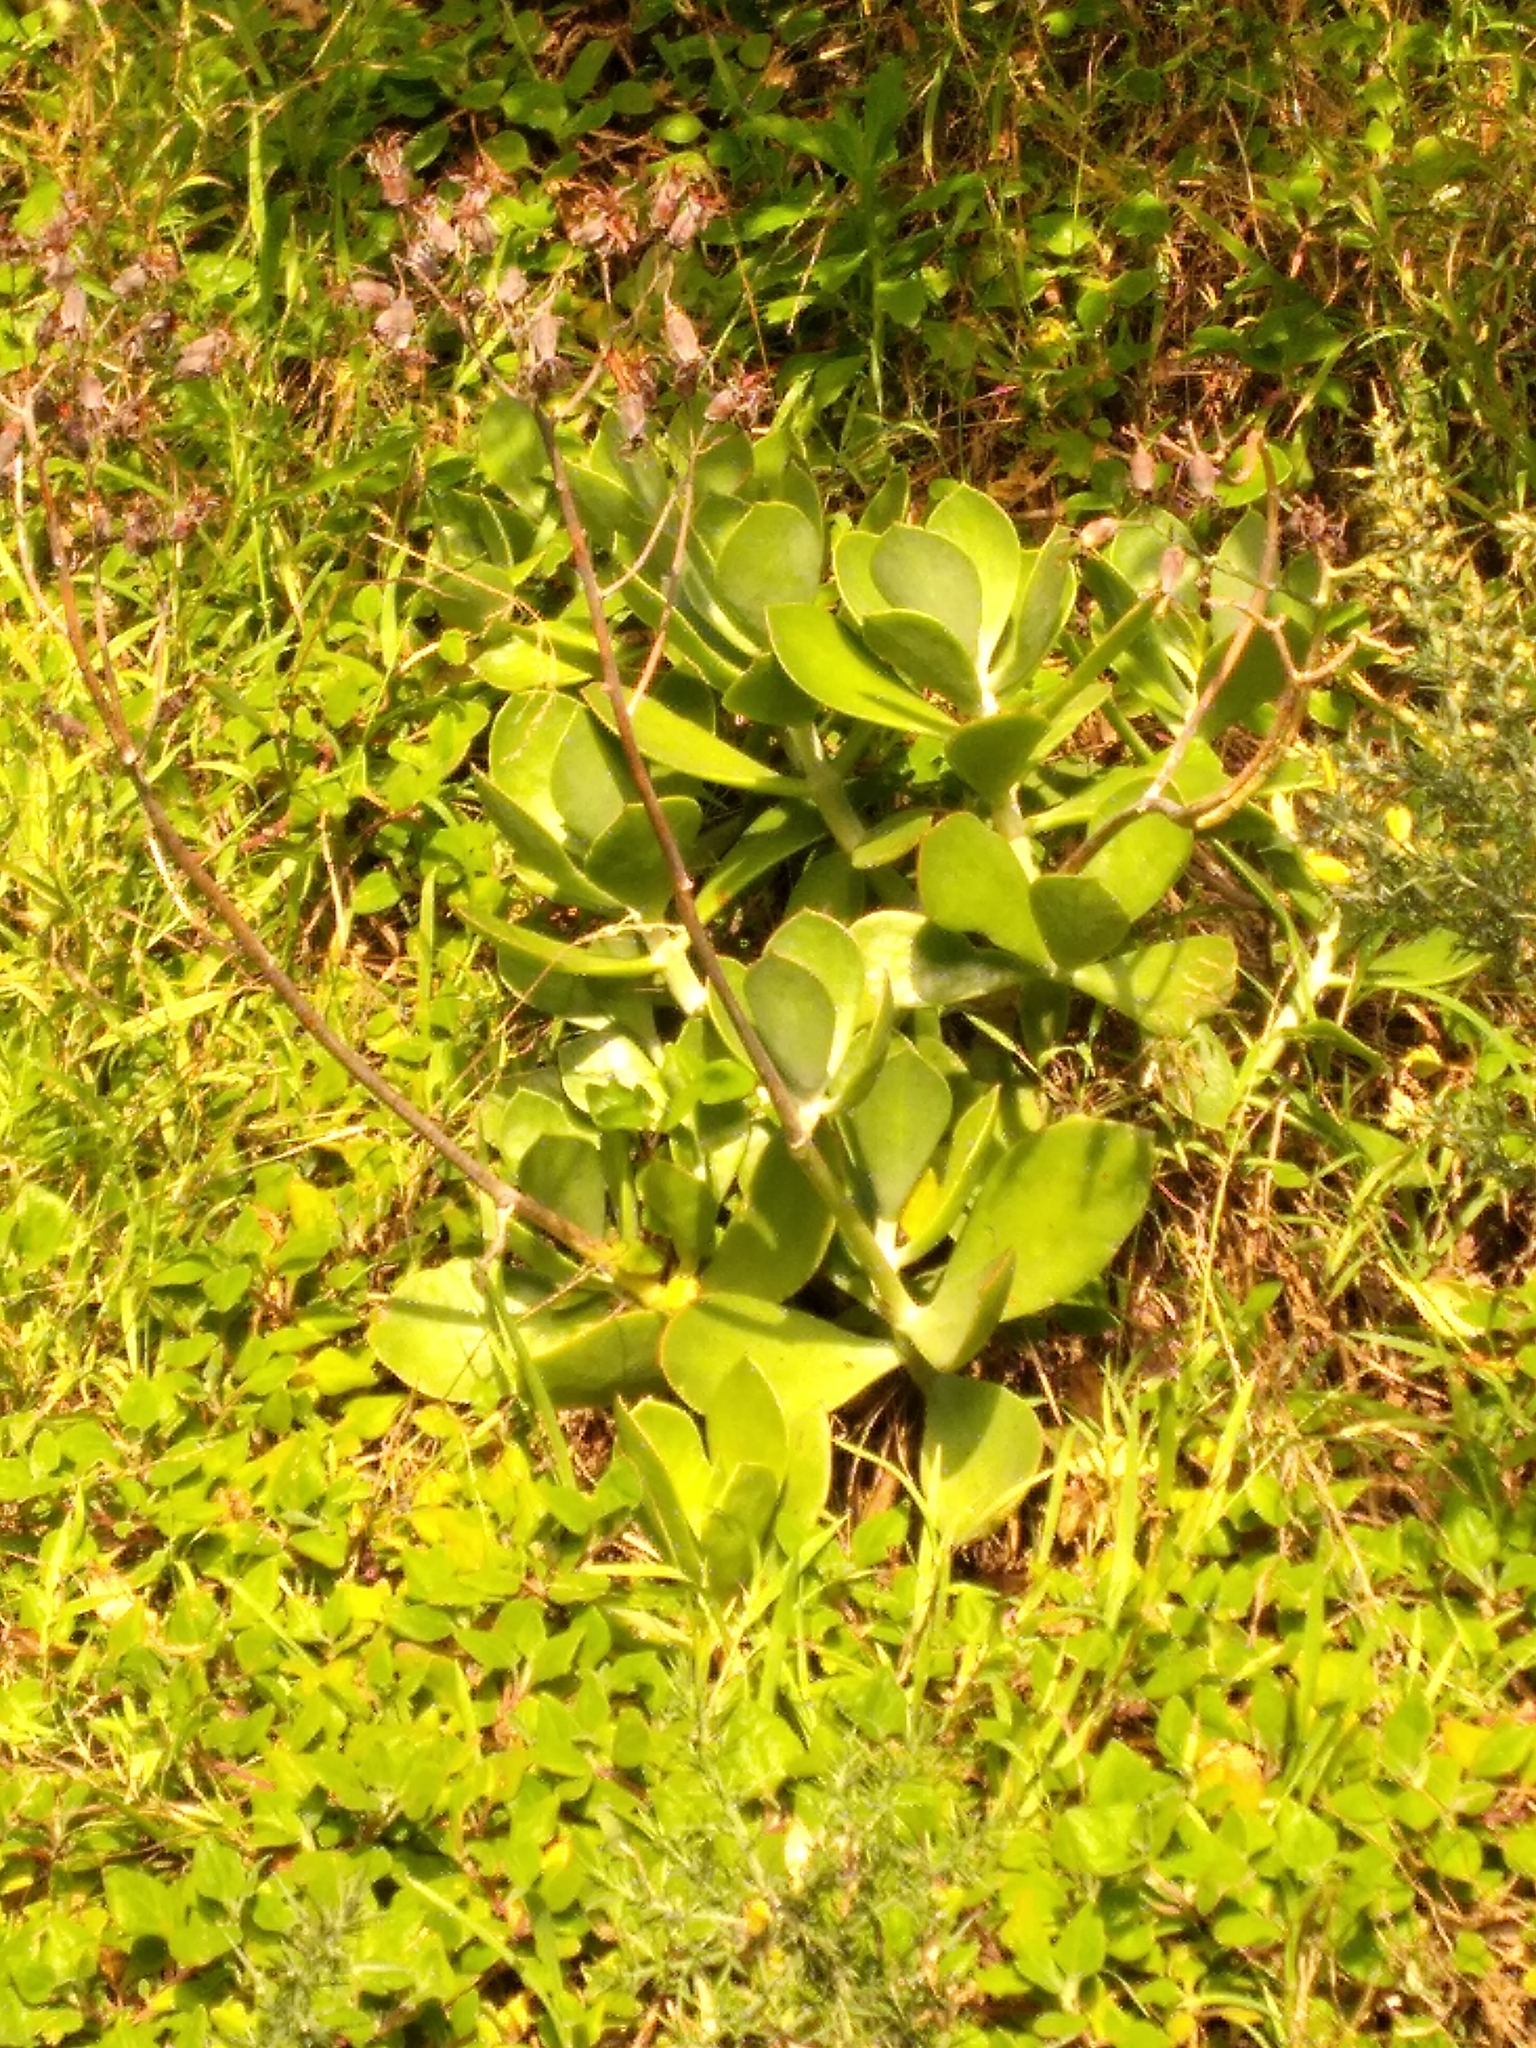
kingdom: Plantae
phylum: Tracheophyta
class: Magnoliopsida
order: Saxifragales
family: Crassulaceae
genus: Cotyledon
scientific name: Cotyledon orbiculata
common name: Pig's ear
